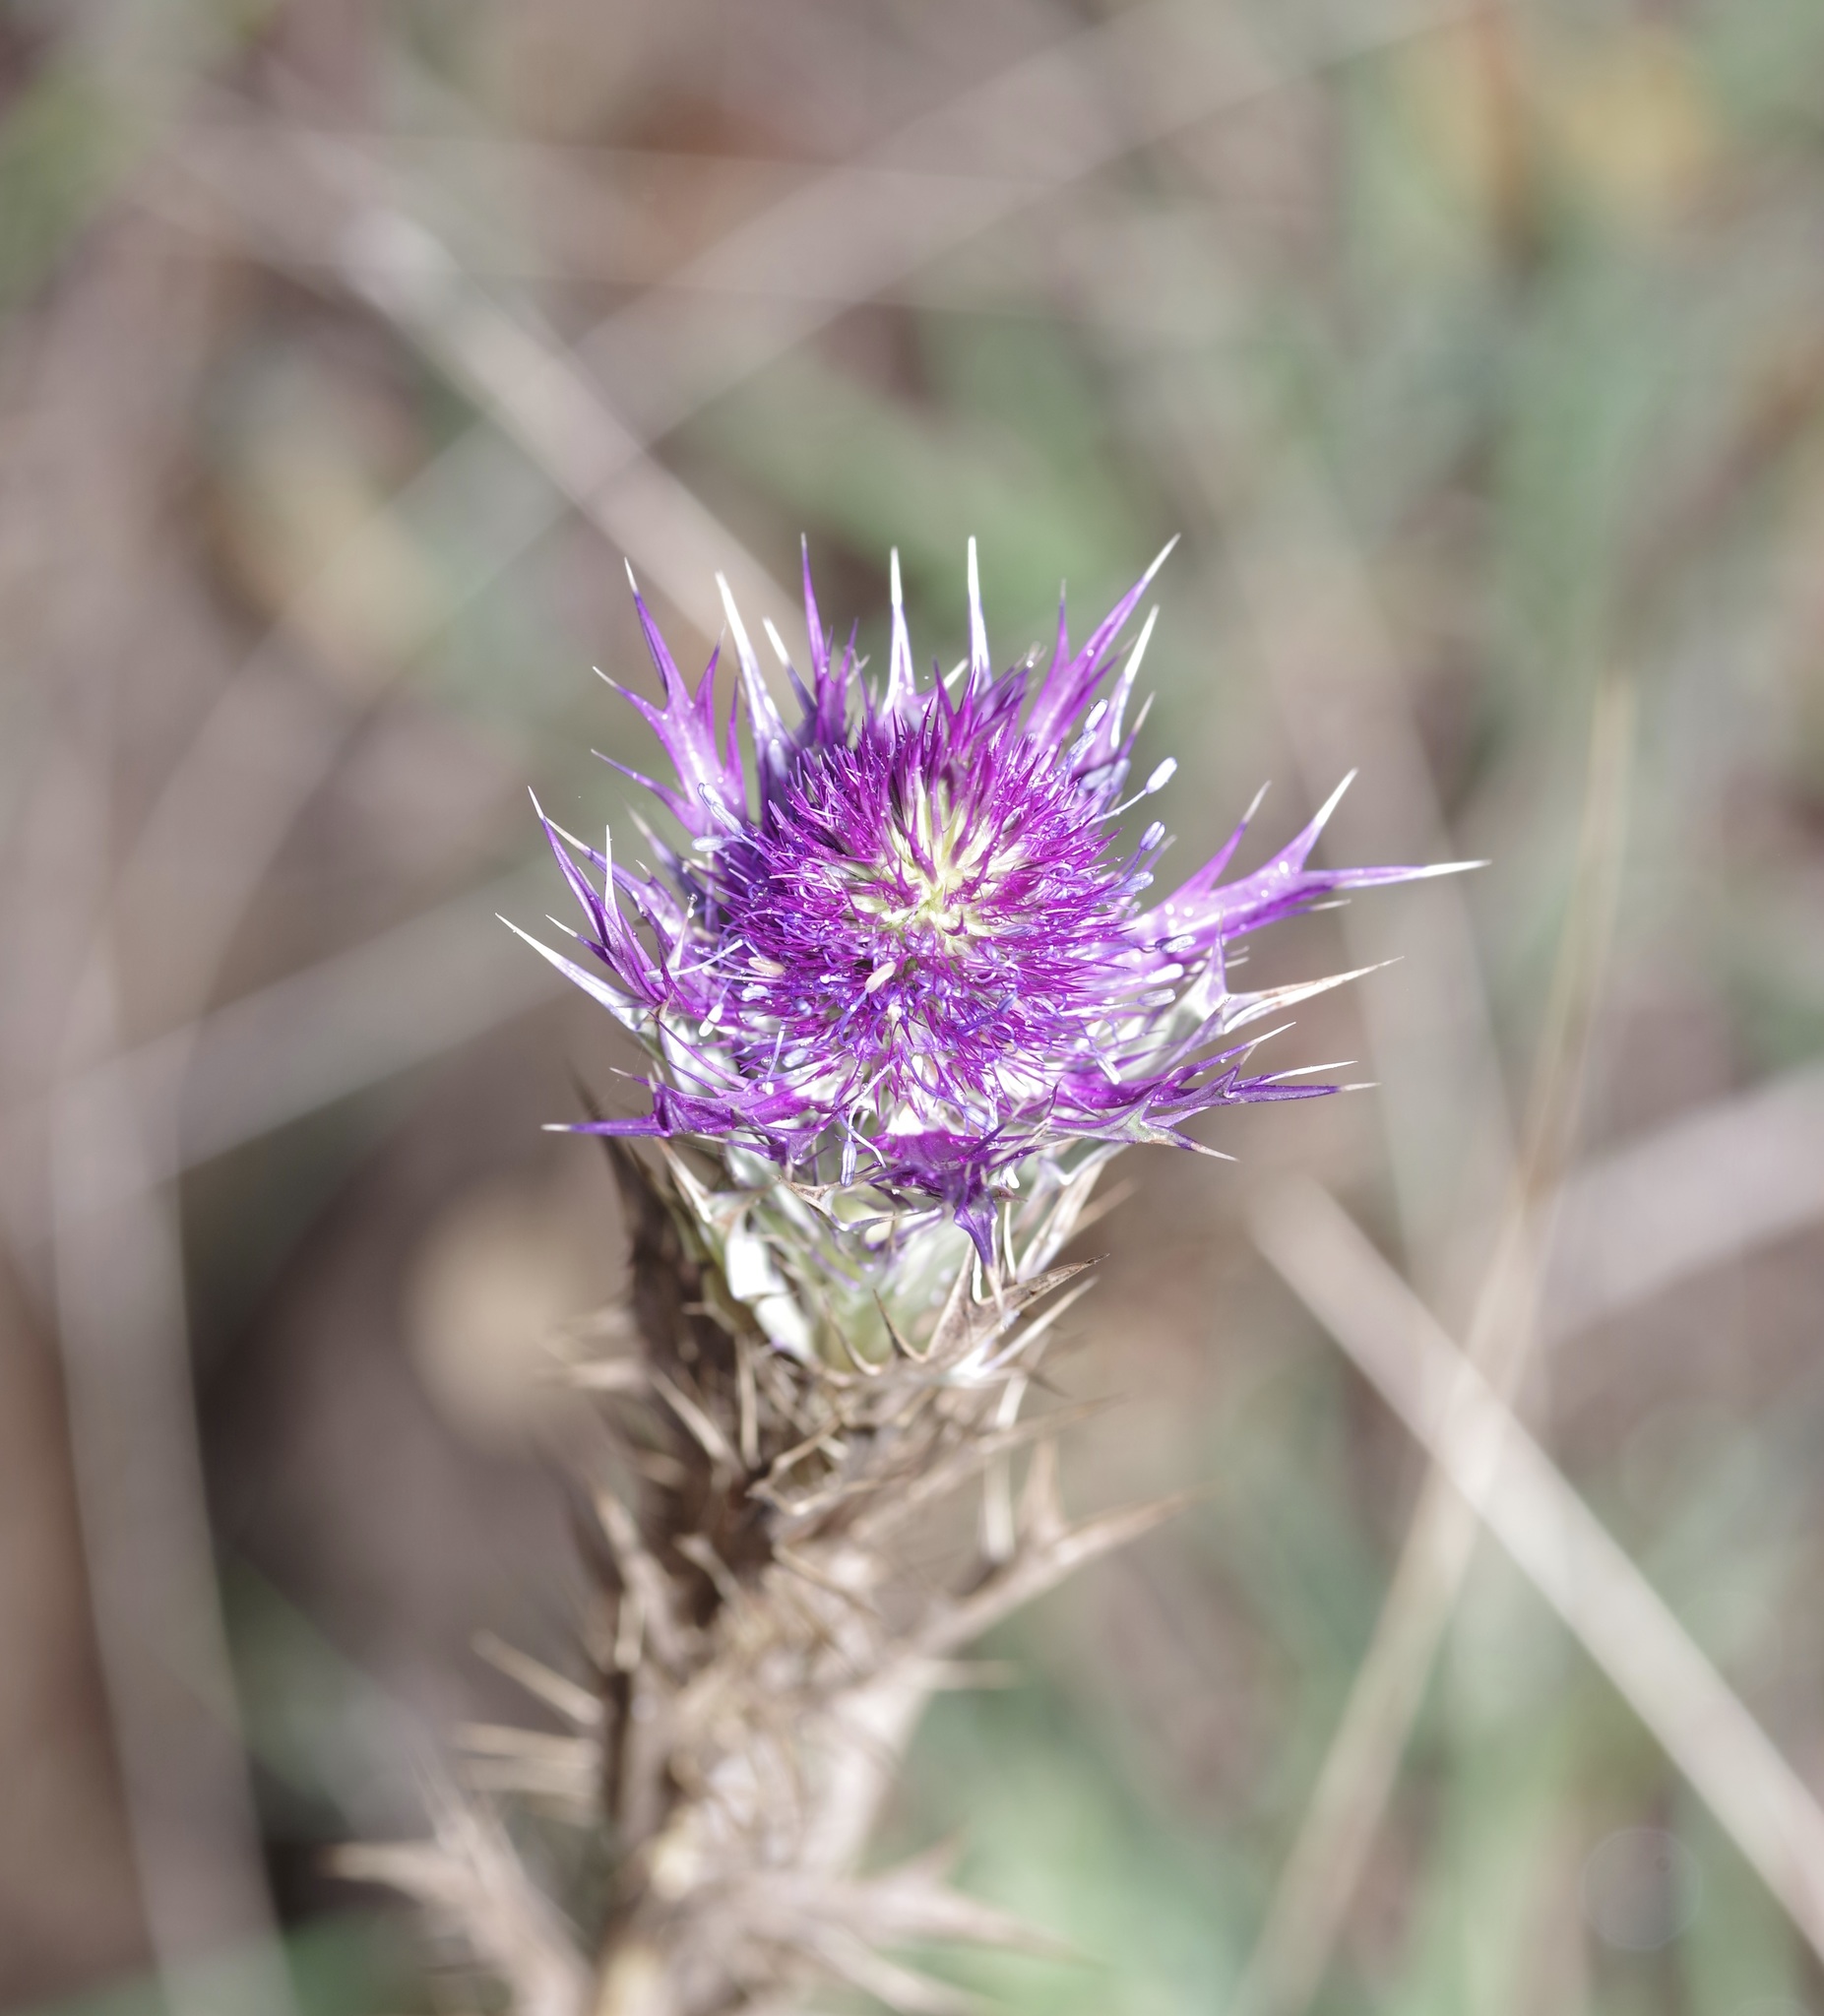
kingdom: Plantae
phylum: Tracheophyta
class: Magnoliopsida
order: Apiales
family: Apiaceae
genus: Eryngium
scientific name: Eryngium leavenworthii
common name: Leavenworth's eryngo
